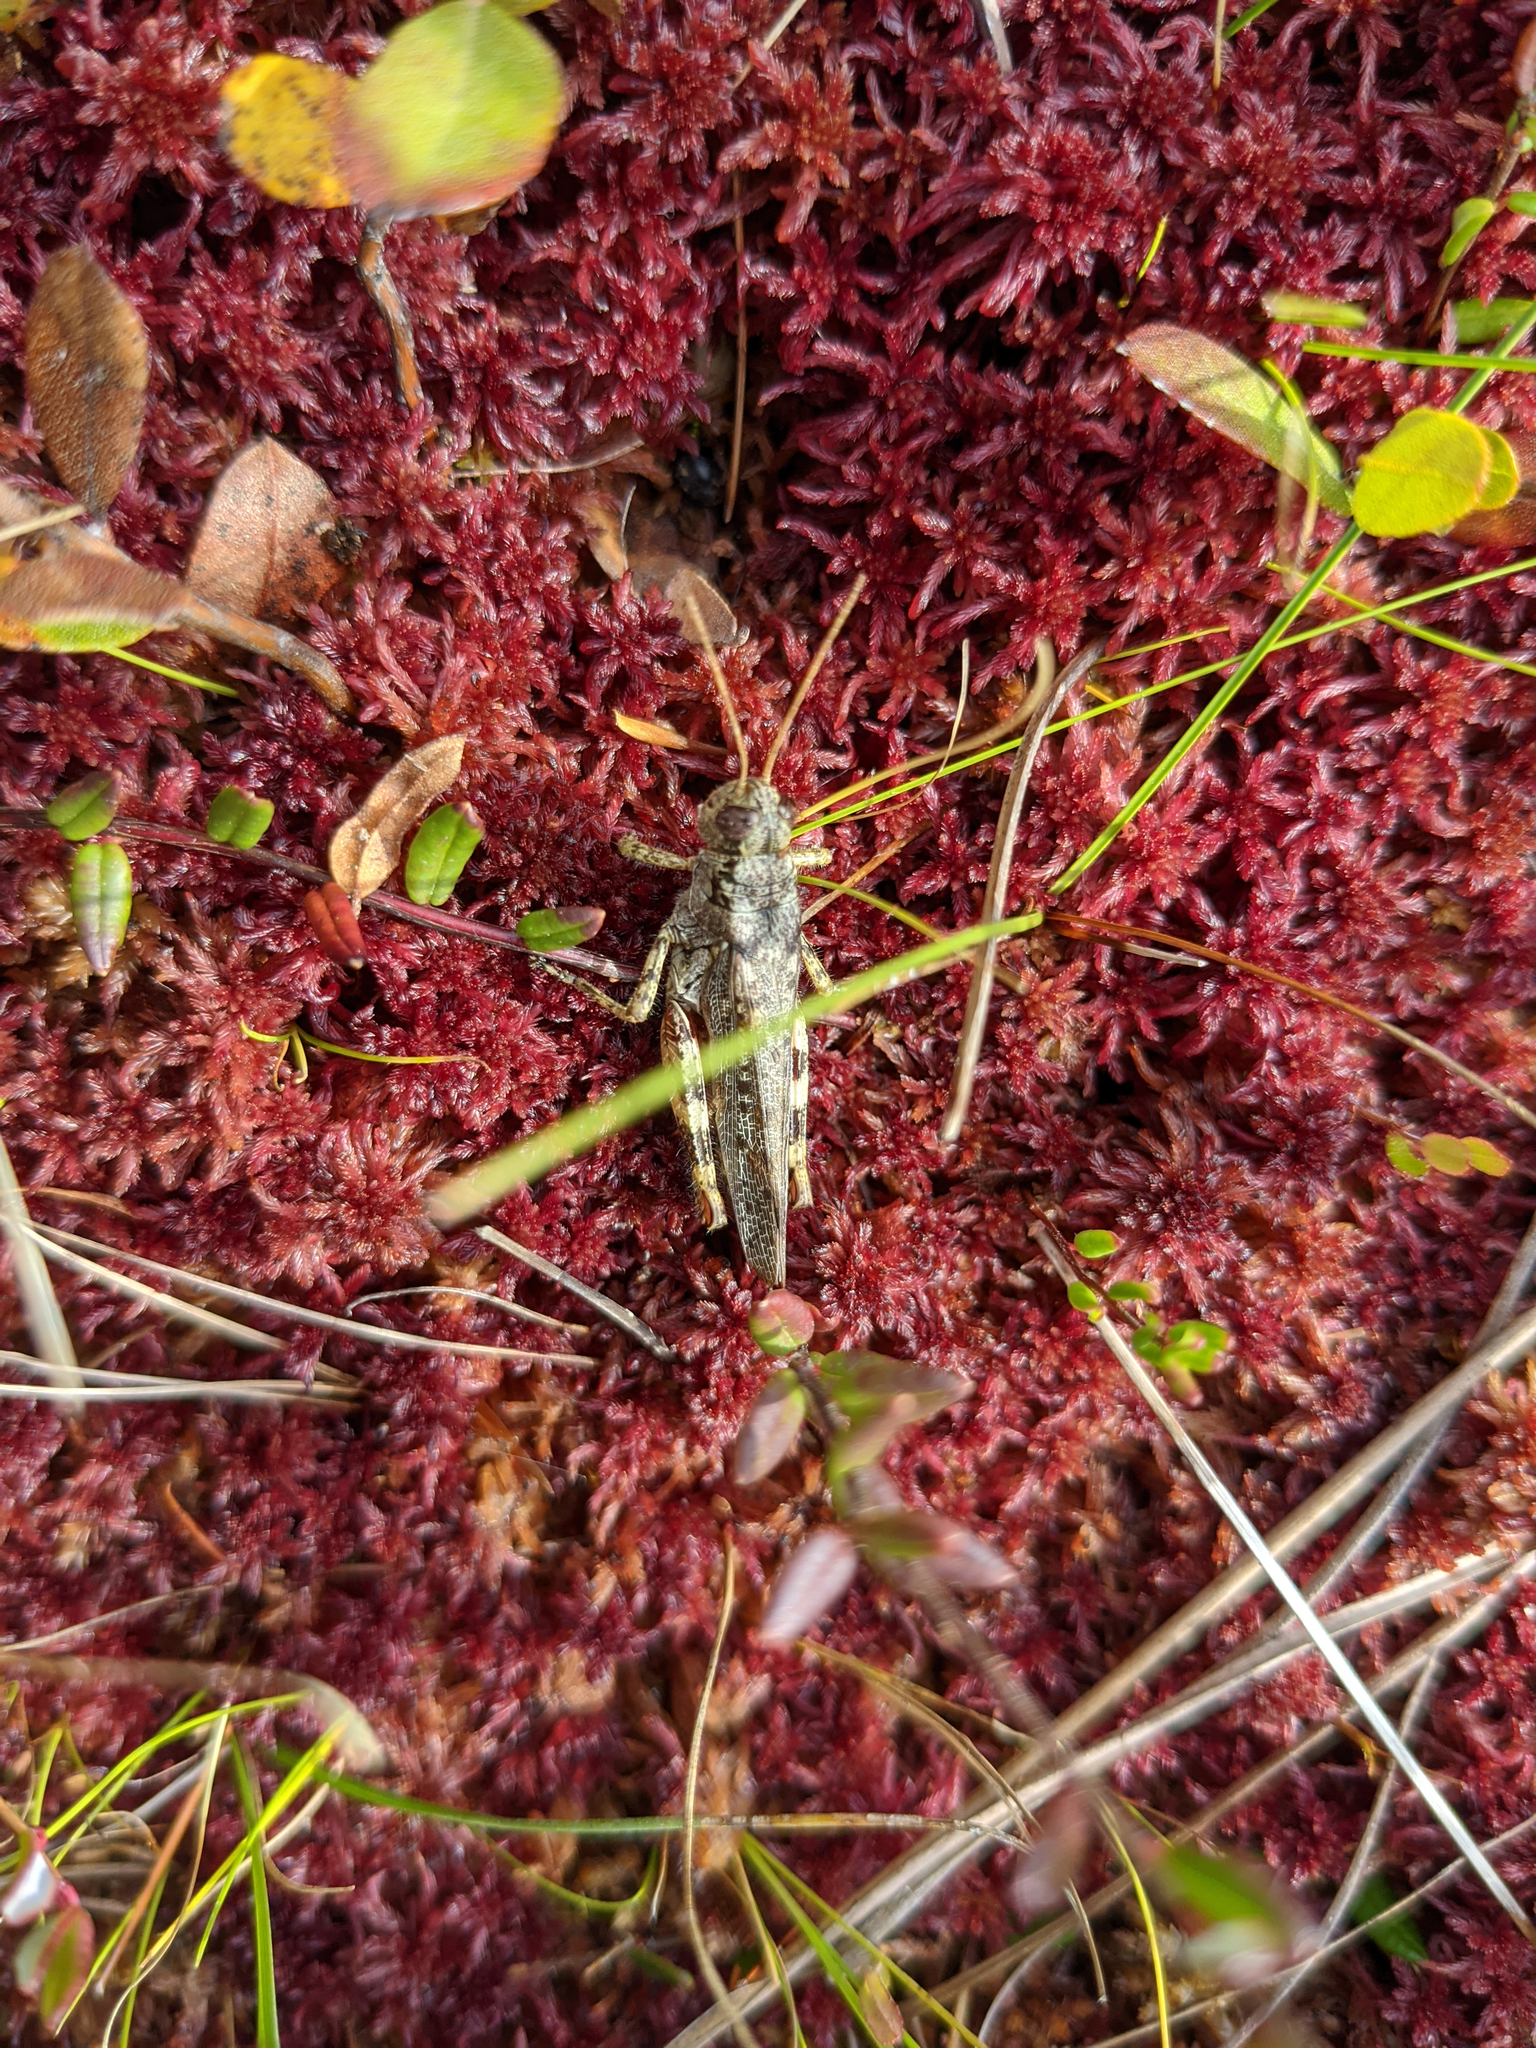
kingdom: Animalia
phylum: Arthropoda
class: Insecta
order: Orthoptera
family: Acrididae
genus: Melanoplus
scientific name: Melanoplus punctulatus
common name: Pine-tree spur-throat grasshopper
